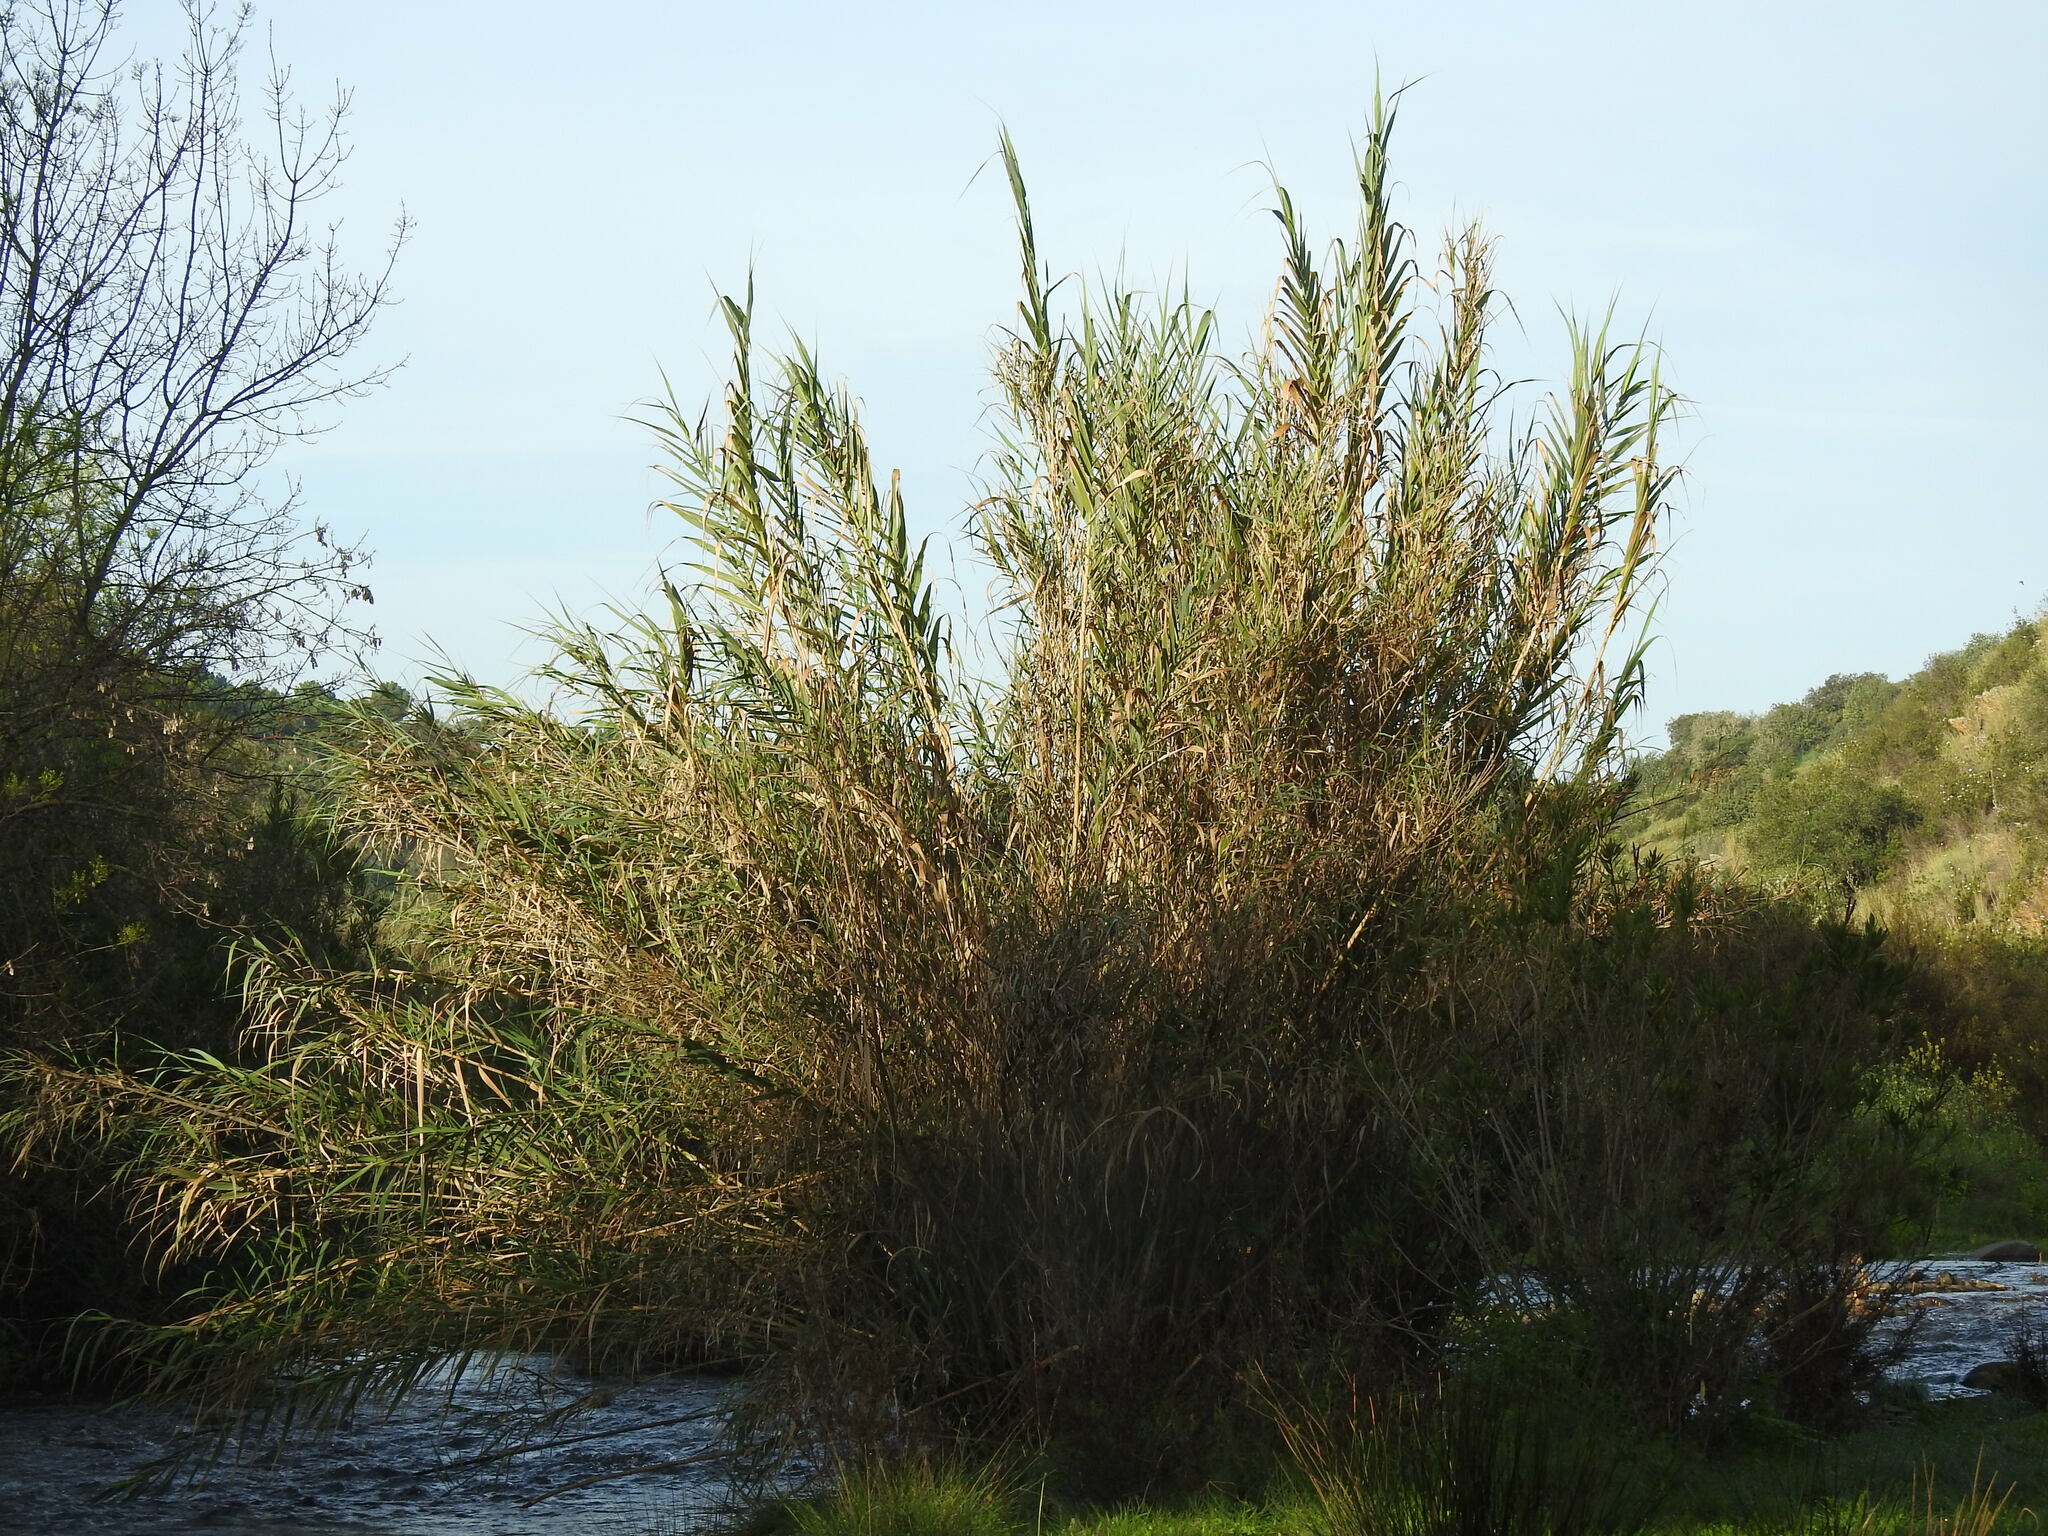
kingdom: Plantae
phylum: Tracheophyta
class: Liliopsida
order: Poales
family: Poaceae
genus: Arundo
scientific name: Arundo donax
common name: Giant reed
